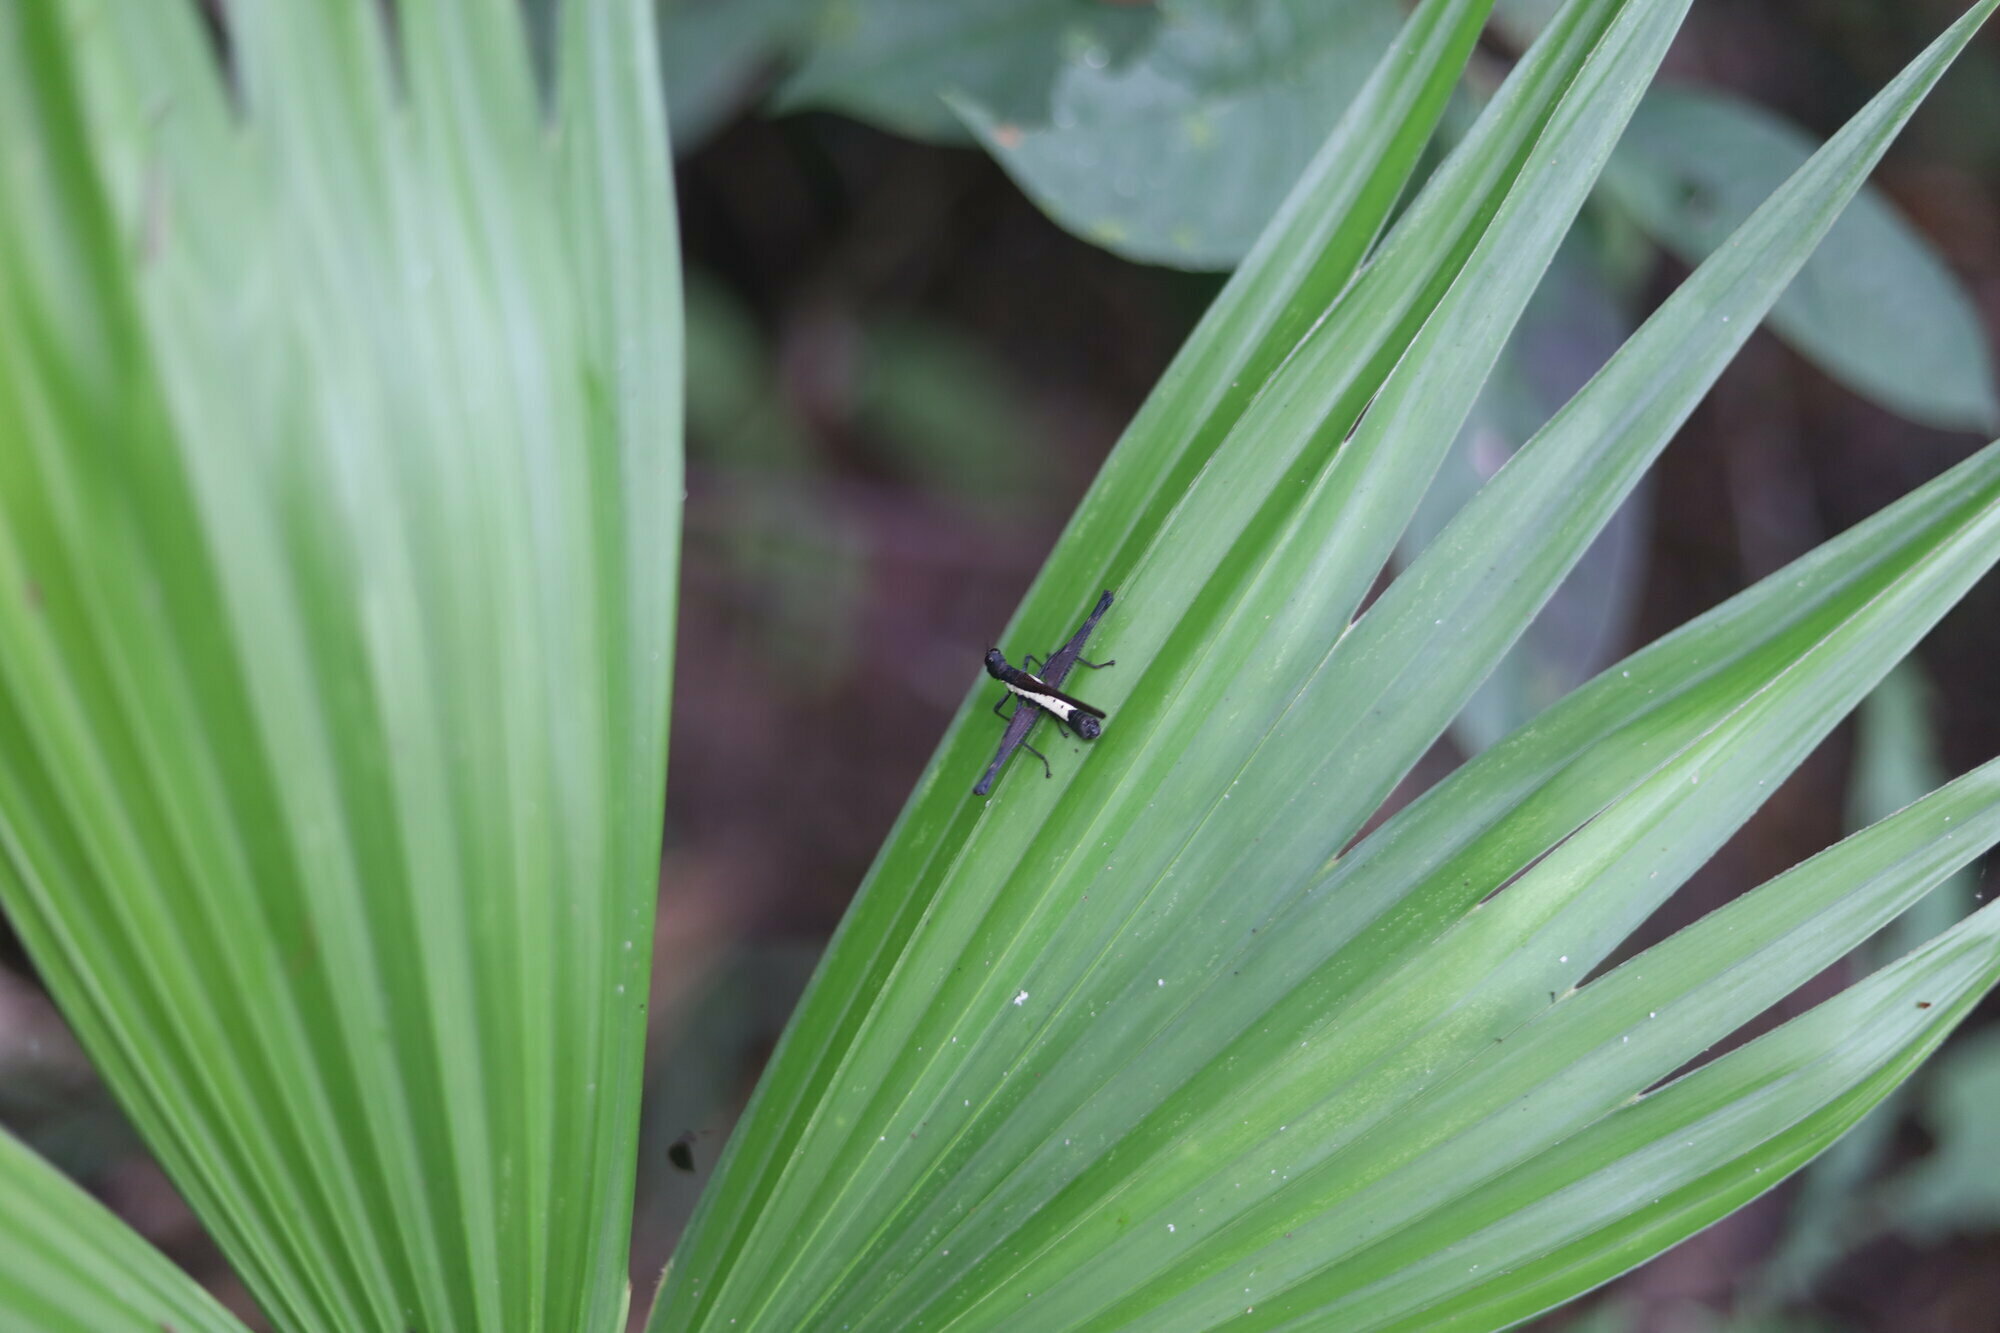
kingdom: Animalia
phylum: Arthropoda
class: Insecta
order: Orthoptera
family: Eumastacidae
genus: Pseudomastax
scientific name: Pseudomastax personata
